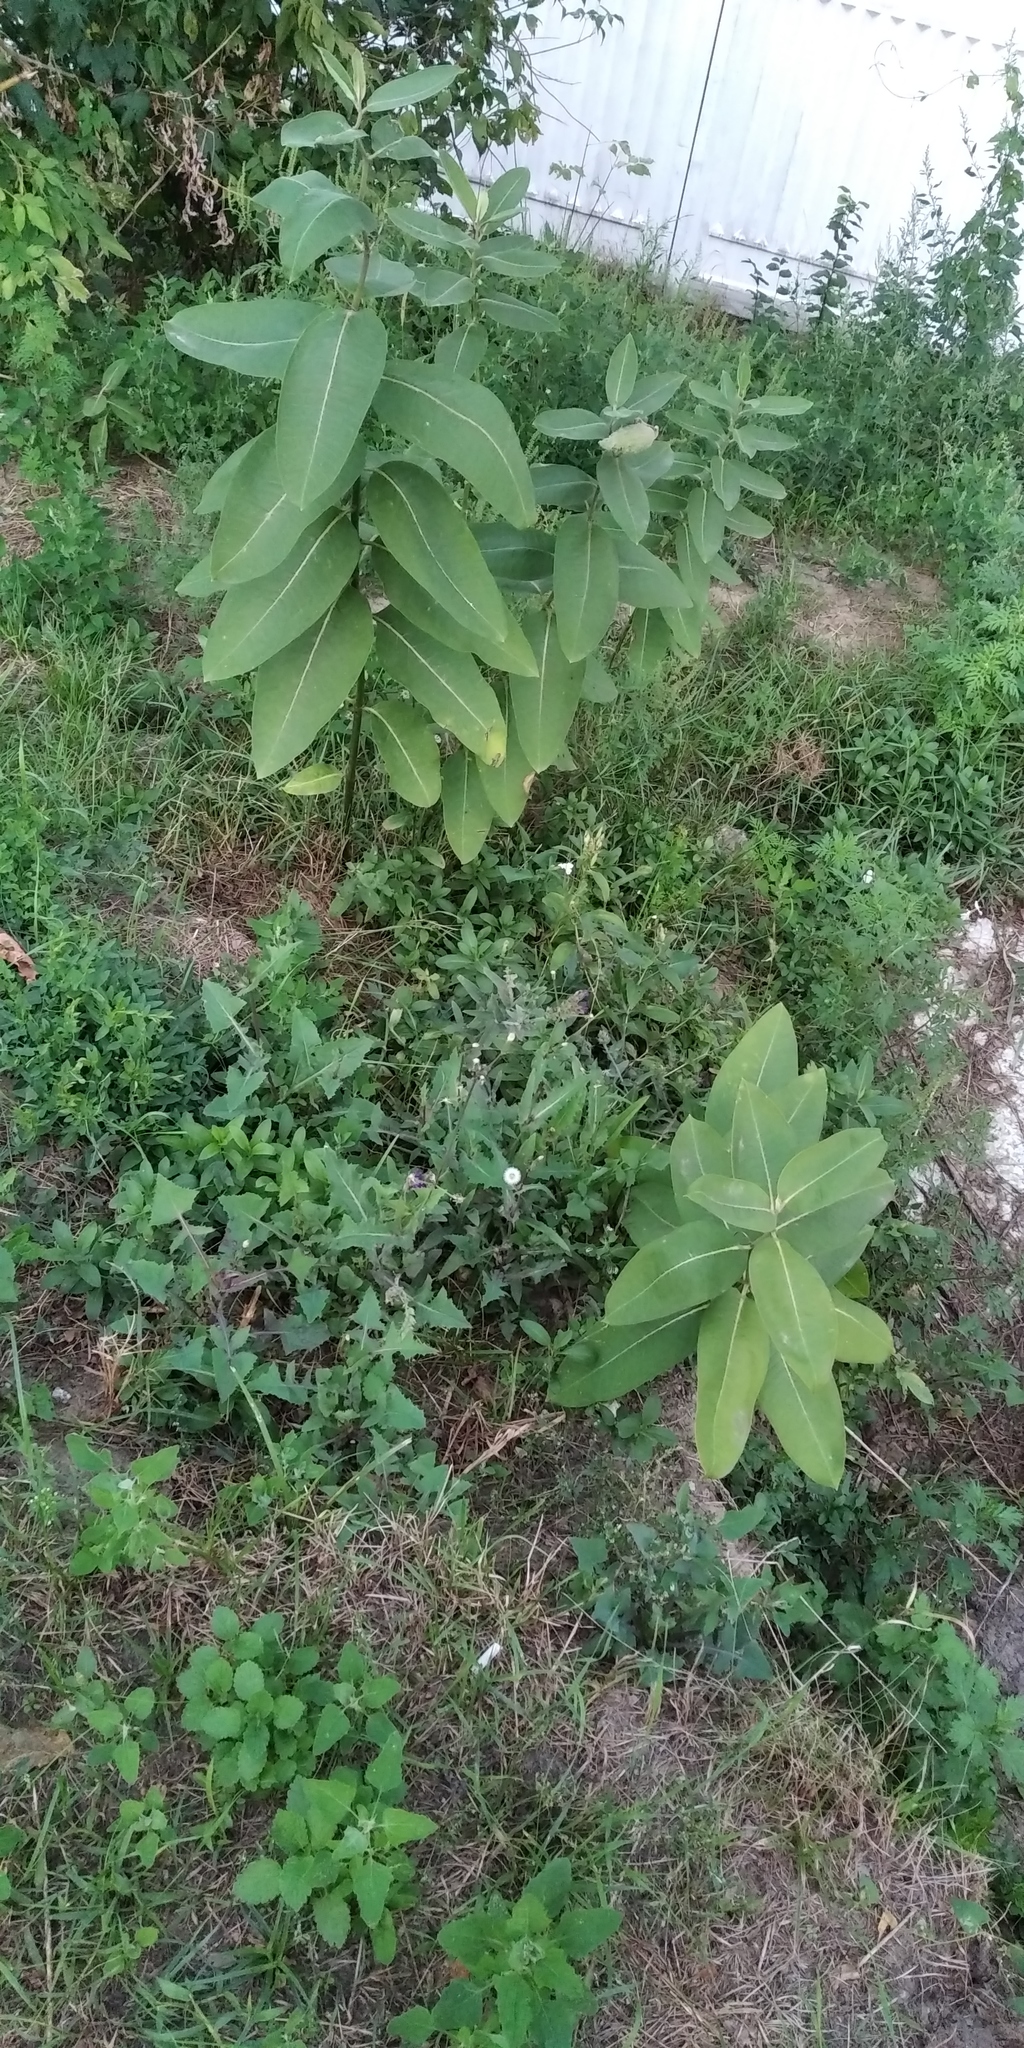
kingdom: Plantae
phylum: Tracheophyta
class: Magnoliopsida
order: Gentianales
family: Apocynaceae
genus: Asclepias
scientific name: Asclepias syriaca
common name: Common milkweed
